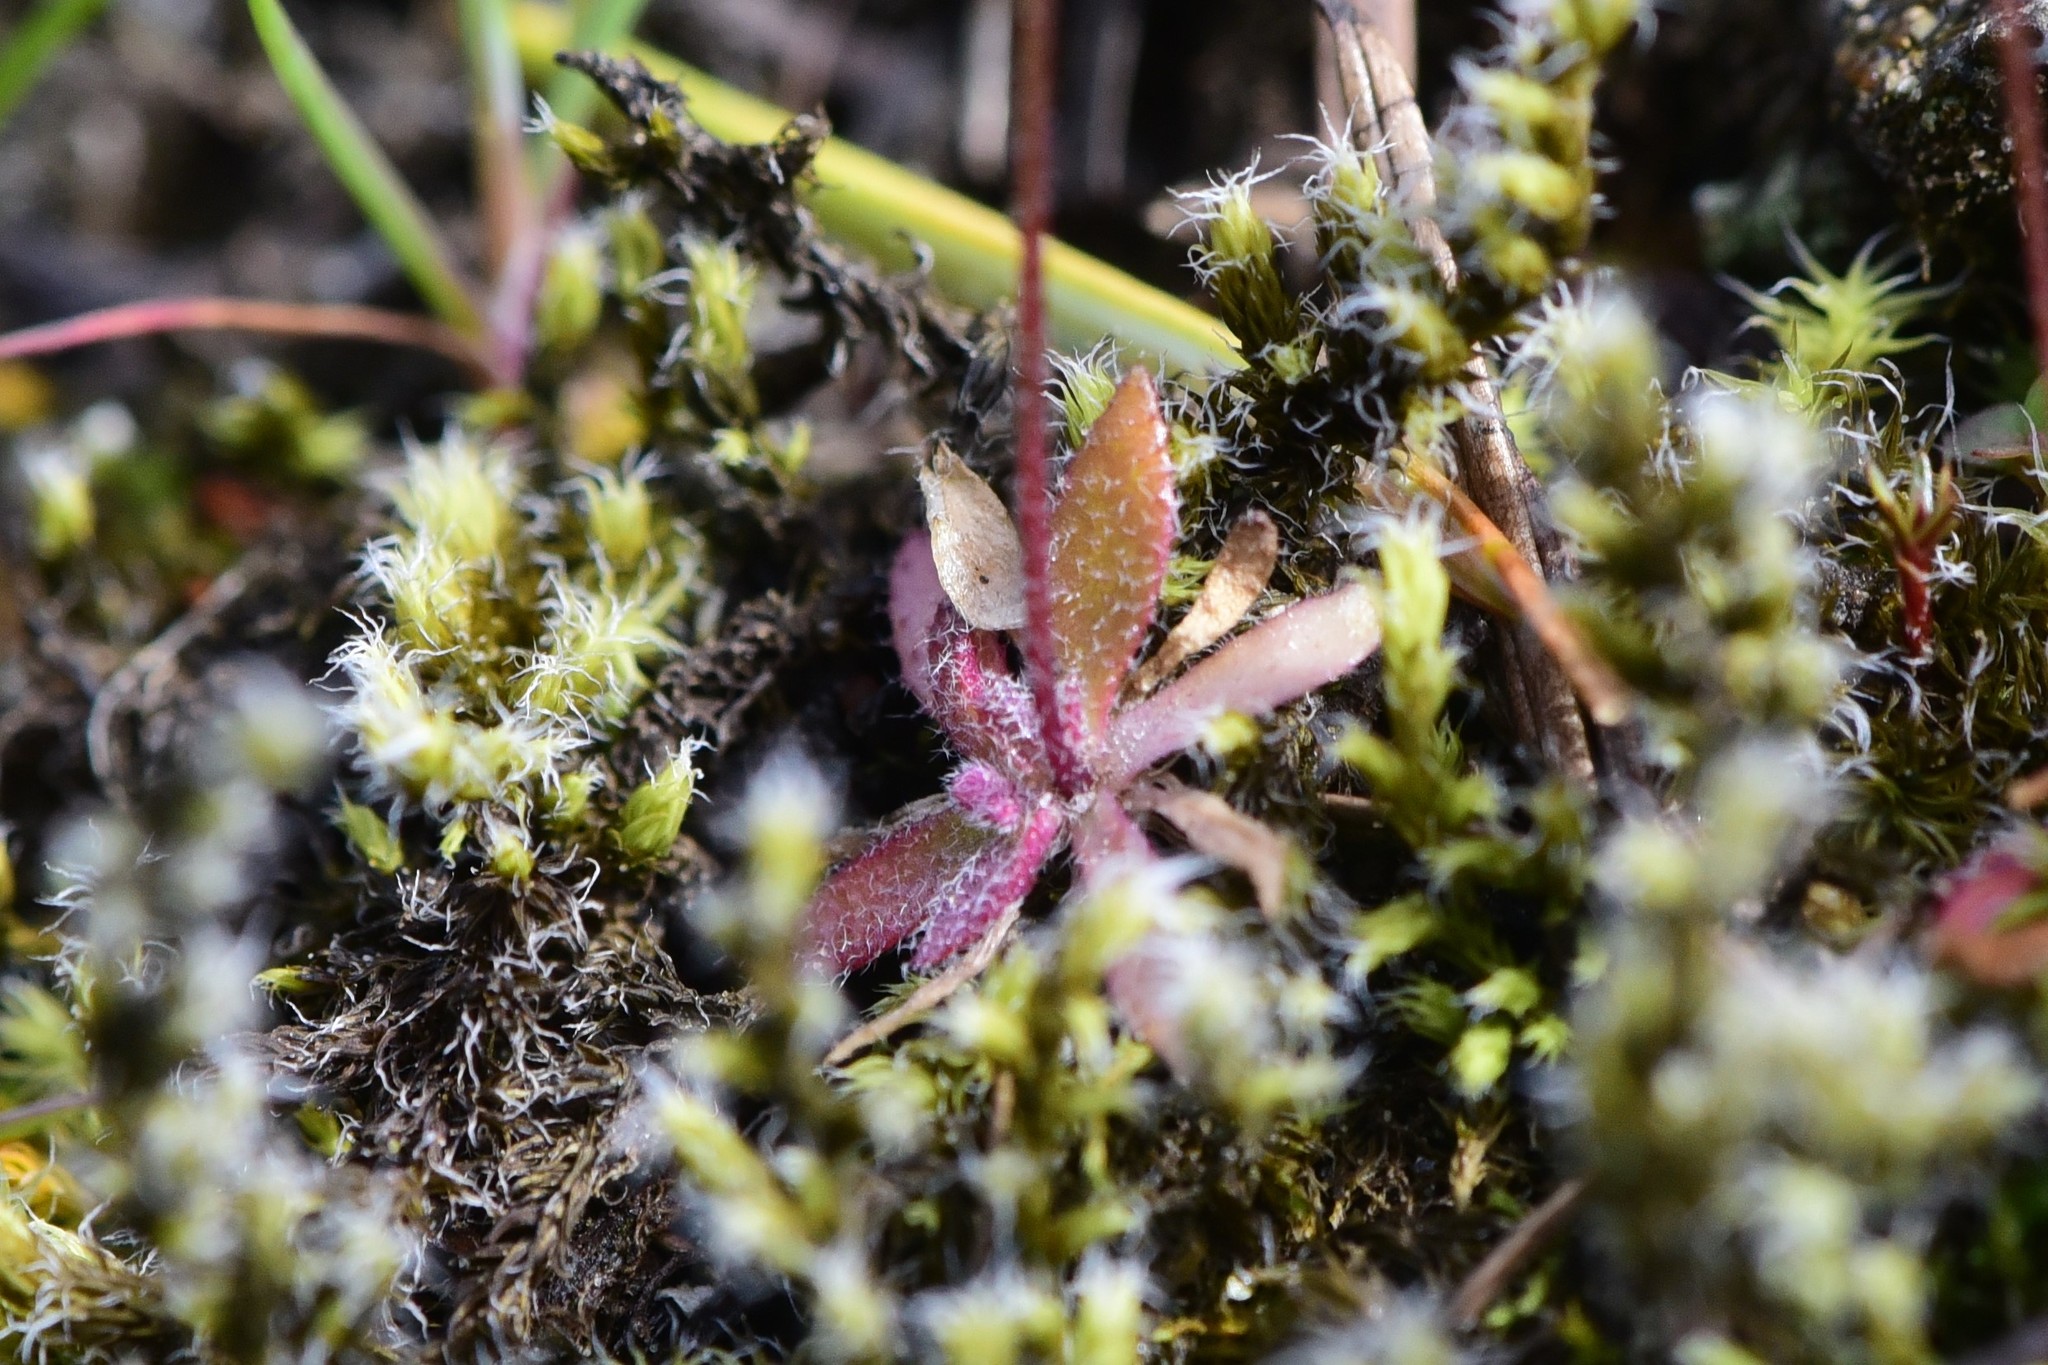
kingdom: Plantae
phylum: Tracheophyta
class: Magnoliopsida
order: Brassicales
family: Brassicaceae
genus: Draba
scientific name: Draba verna
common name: Spring draba
